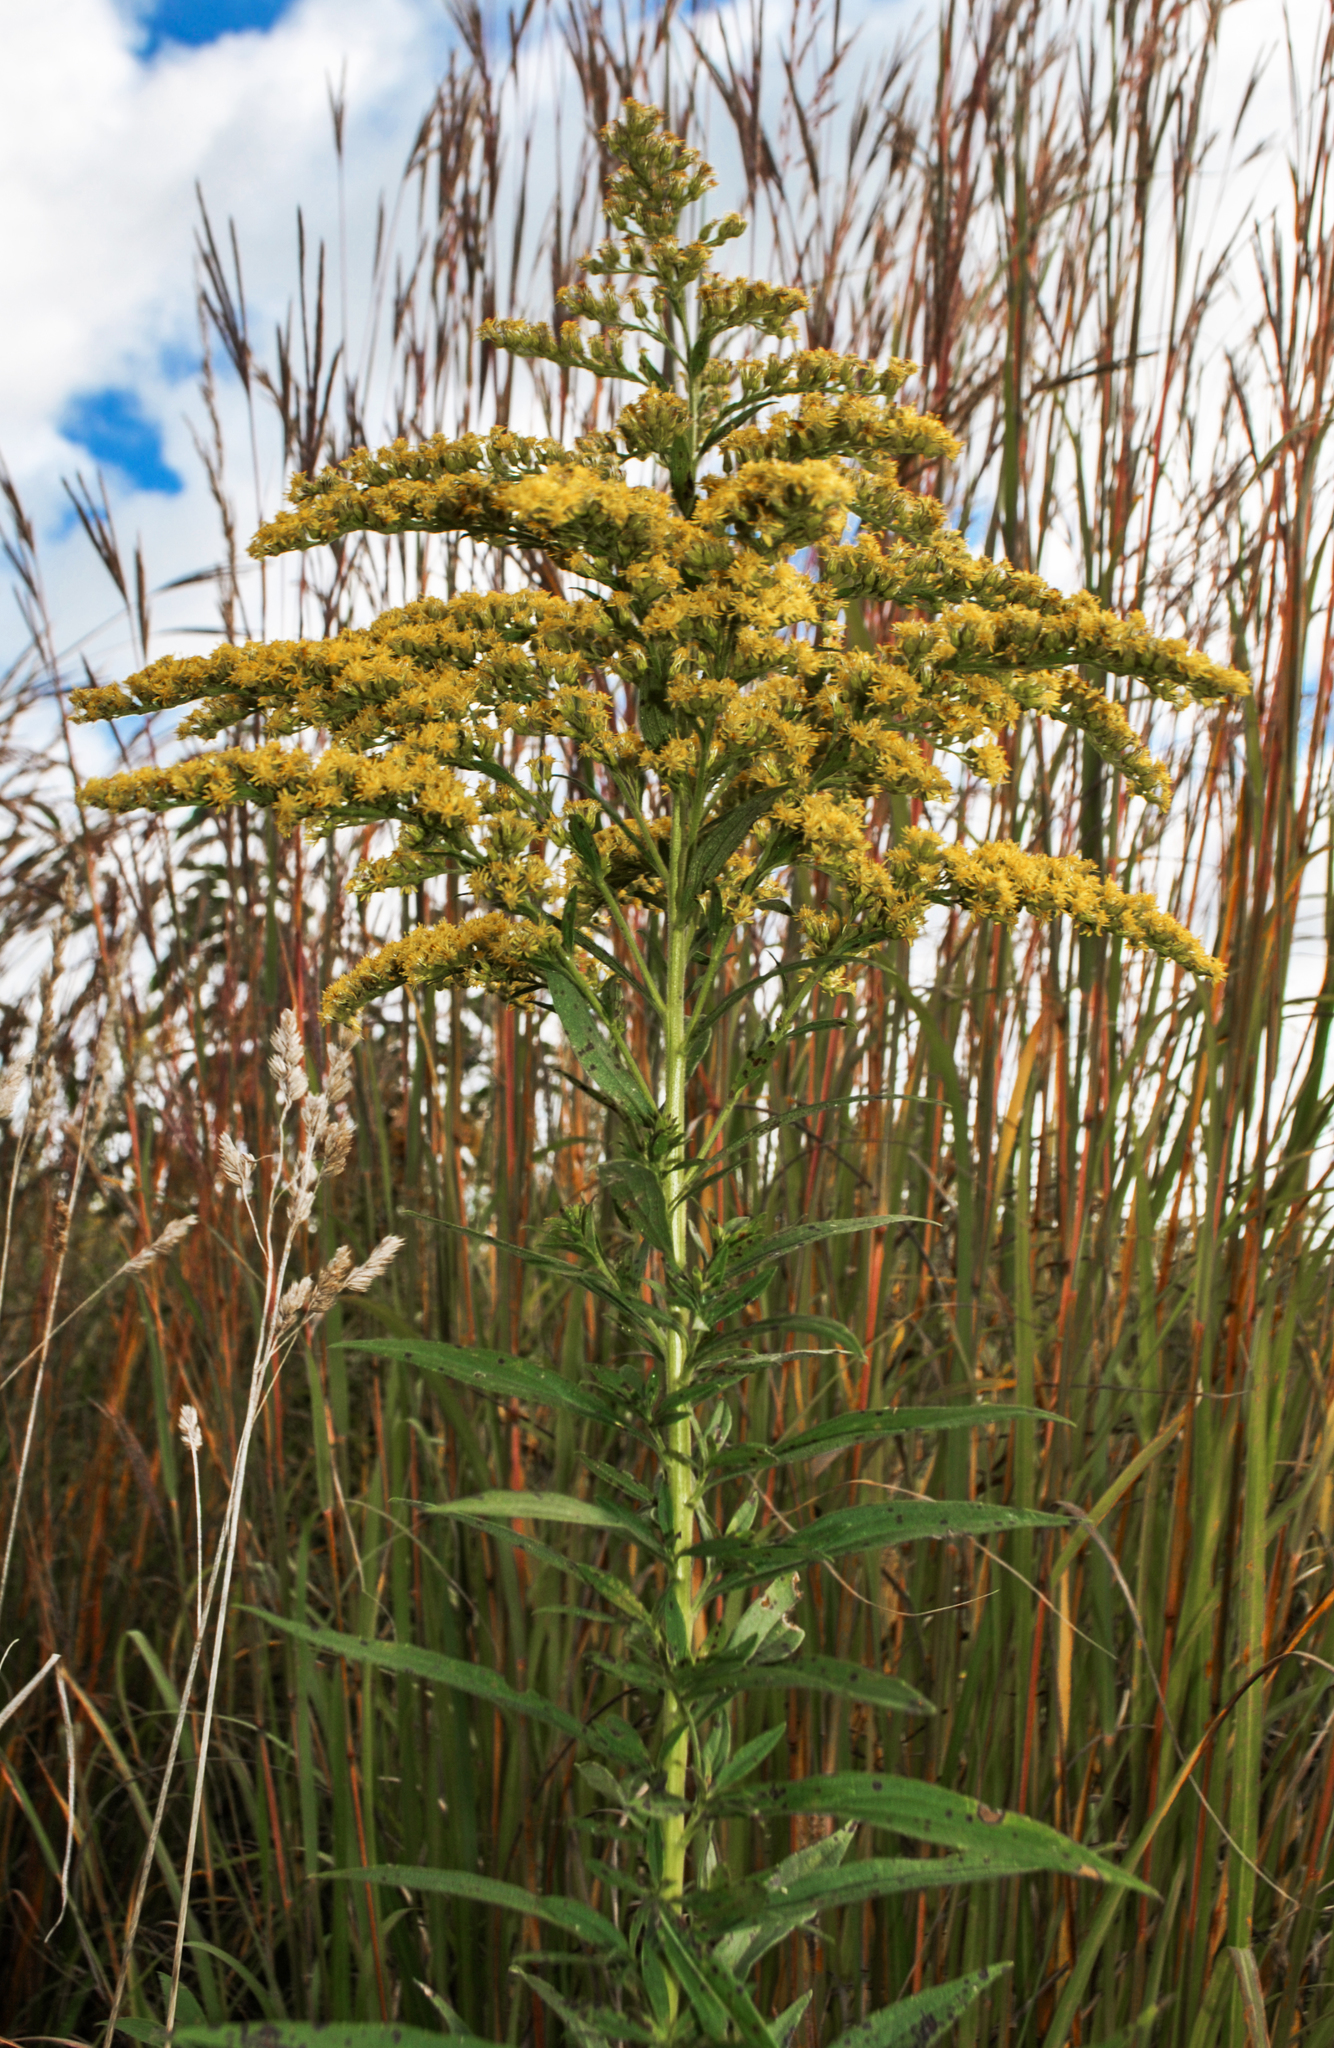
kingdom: Plantae
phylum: Tracheophyta
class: Magnoliopsida
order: Asterales
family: Asteraceae
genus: Solidago
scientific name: Solidago canadensis
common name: Canada goldenrod
